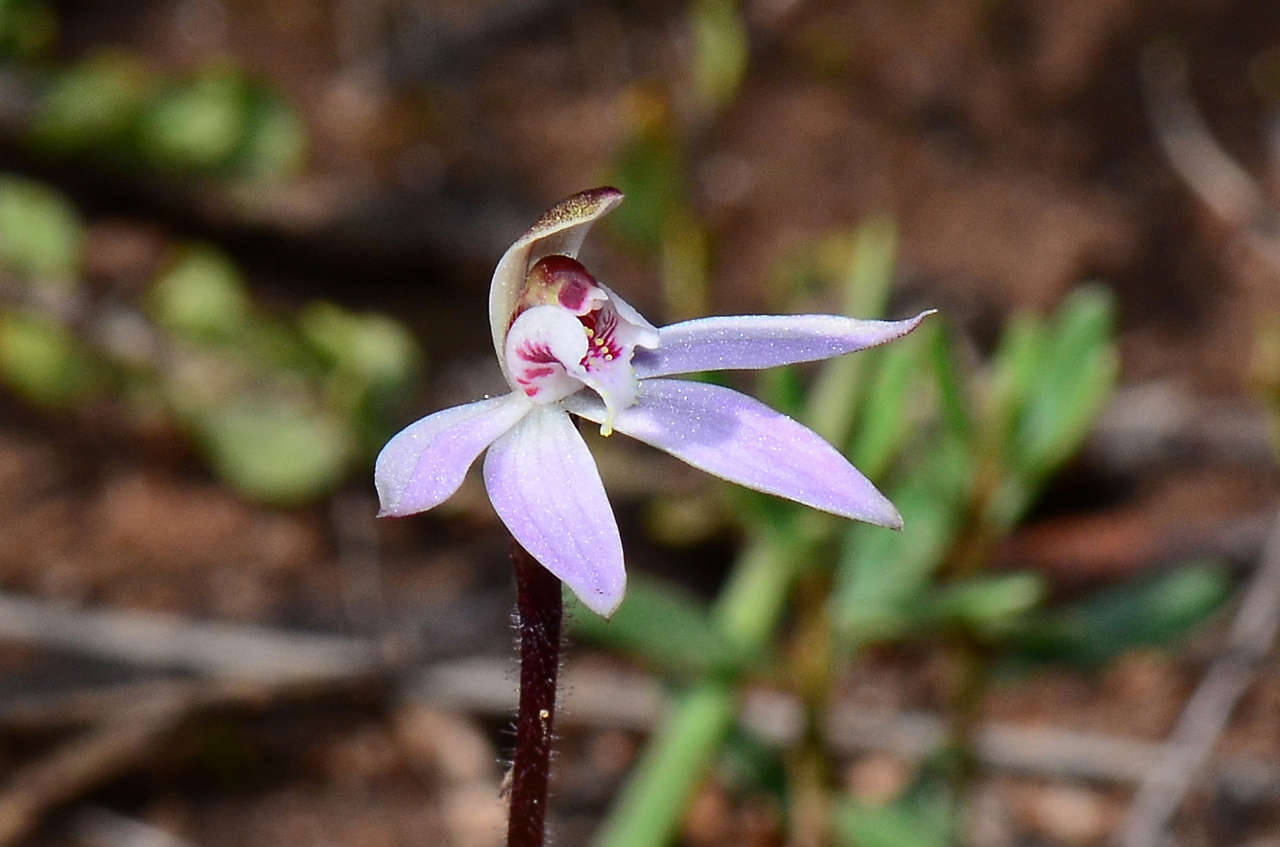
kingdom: Plantae
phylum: Tracheophyta
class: Liliopsida
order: Asparagales
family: Orchidaceae
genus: Caladenia
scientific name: Caladenia fuscata
